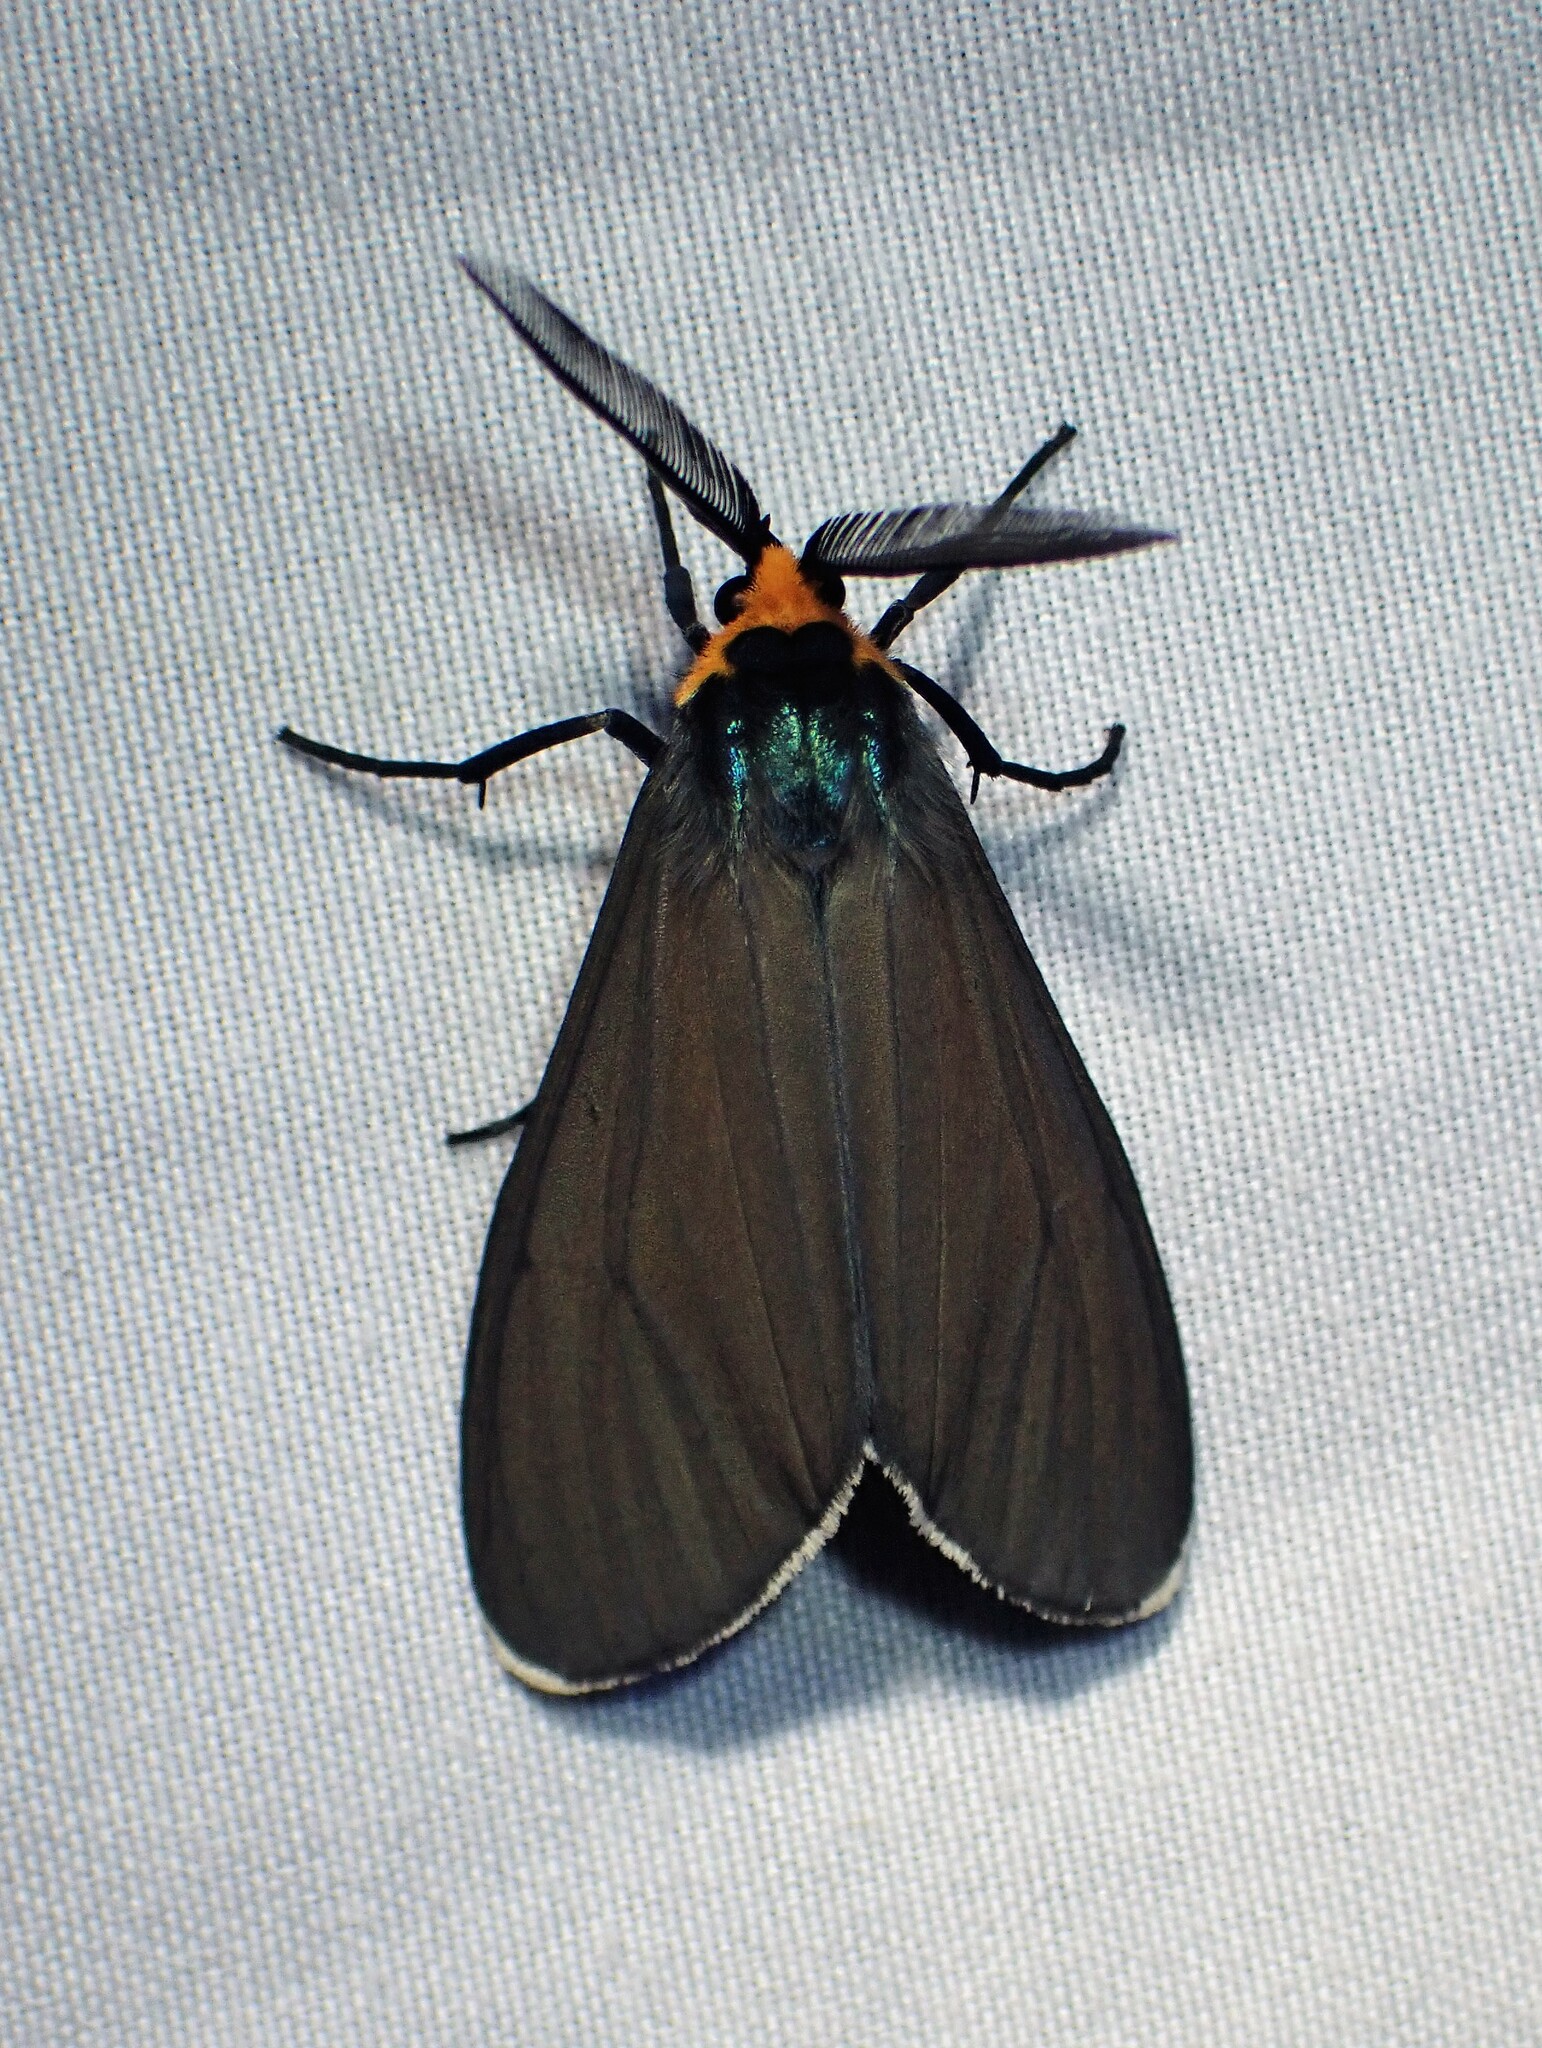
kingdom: Animalia
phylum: Arthropoda
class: Insecta
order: Lepidoptera
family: Erebidae
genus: Ctenucha
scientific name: Ctenucha virginica
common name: Virginia ctenucha moth
